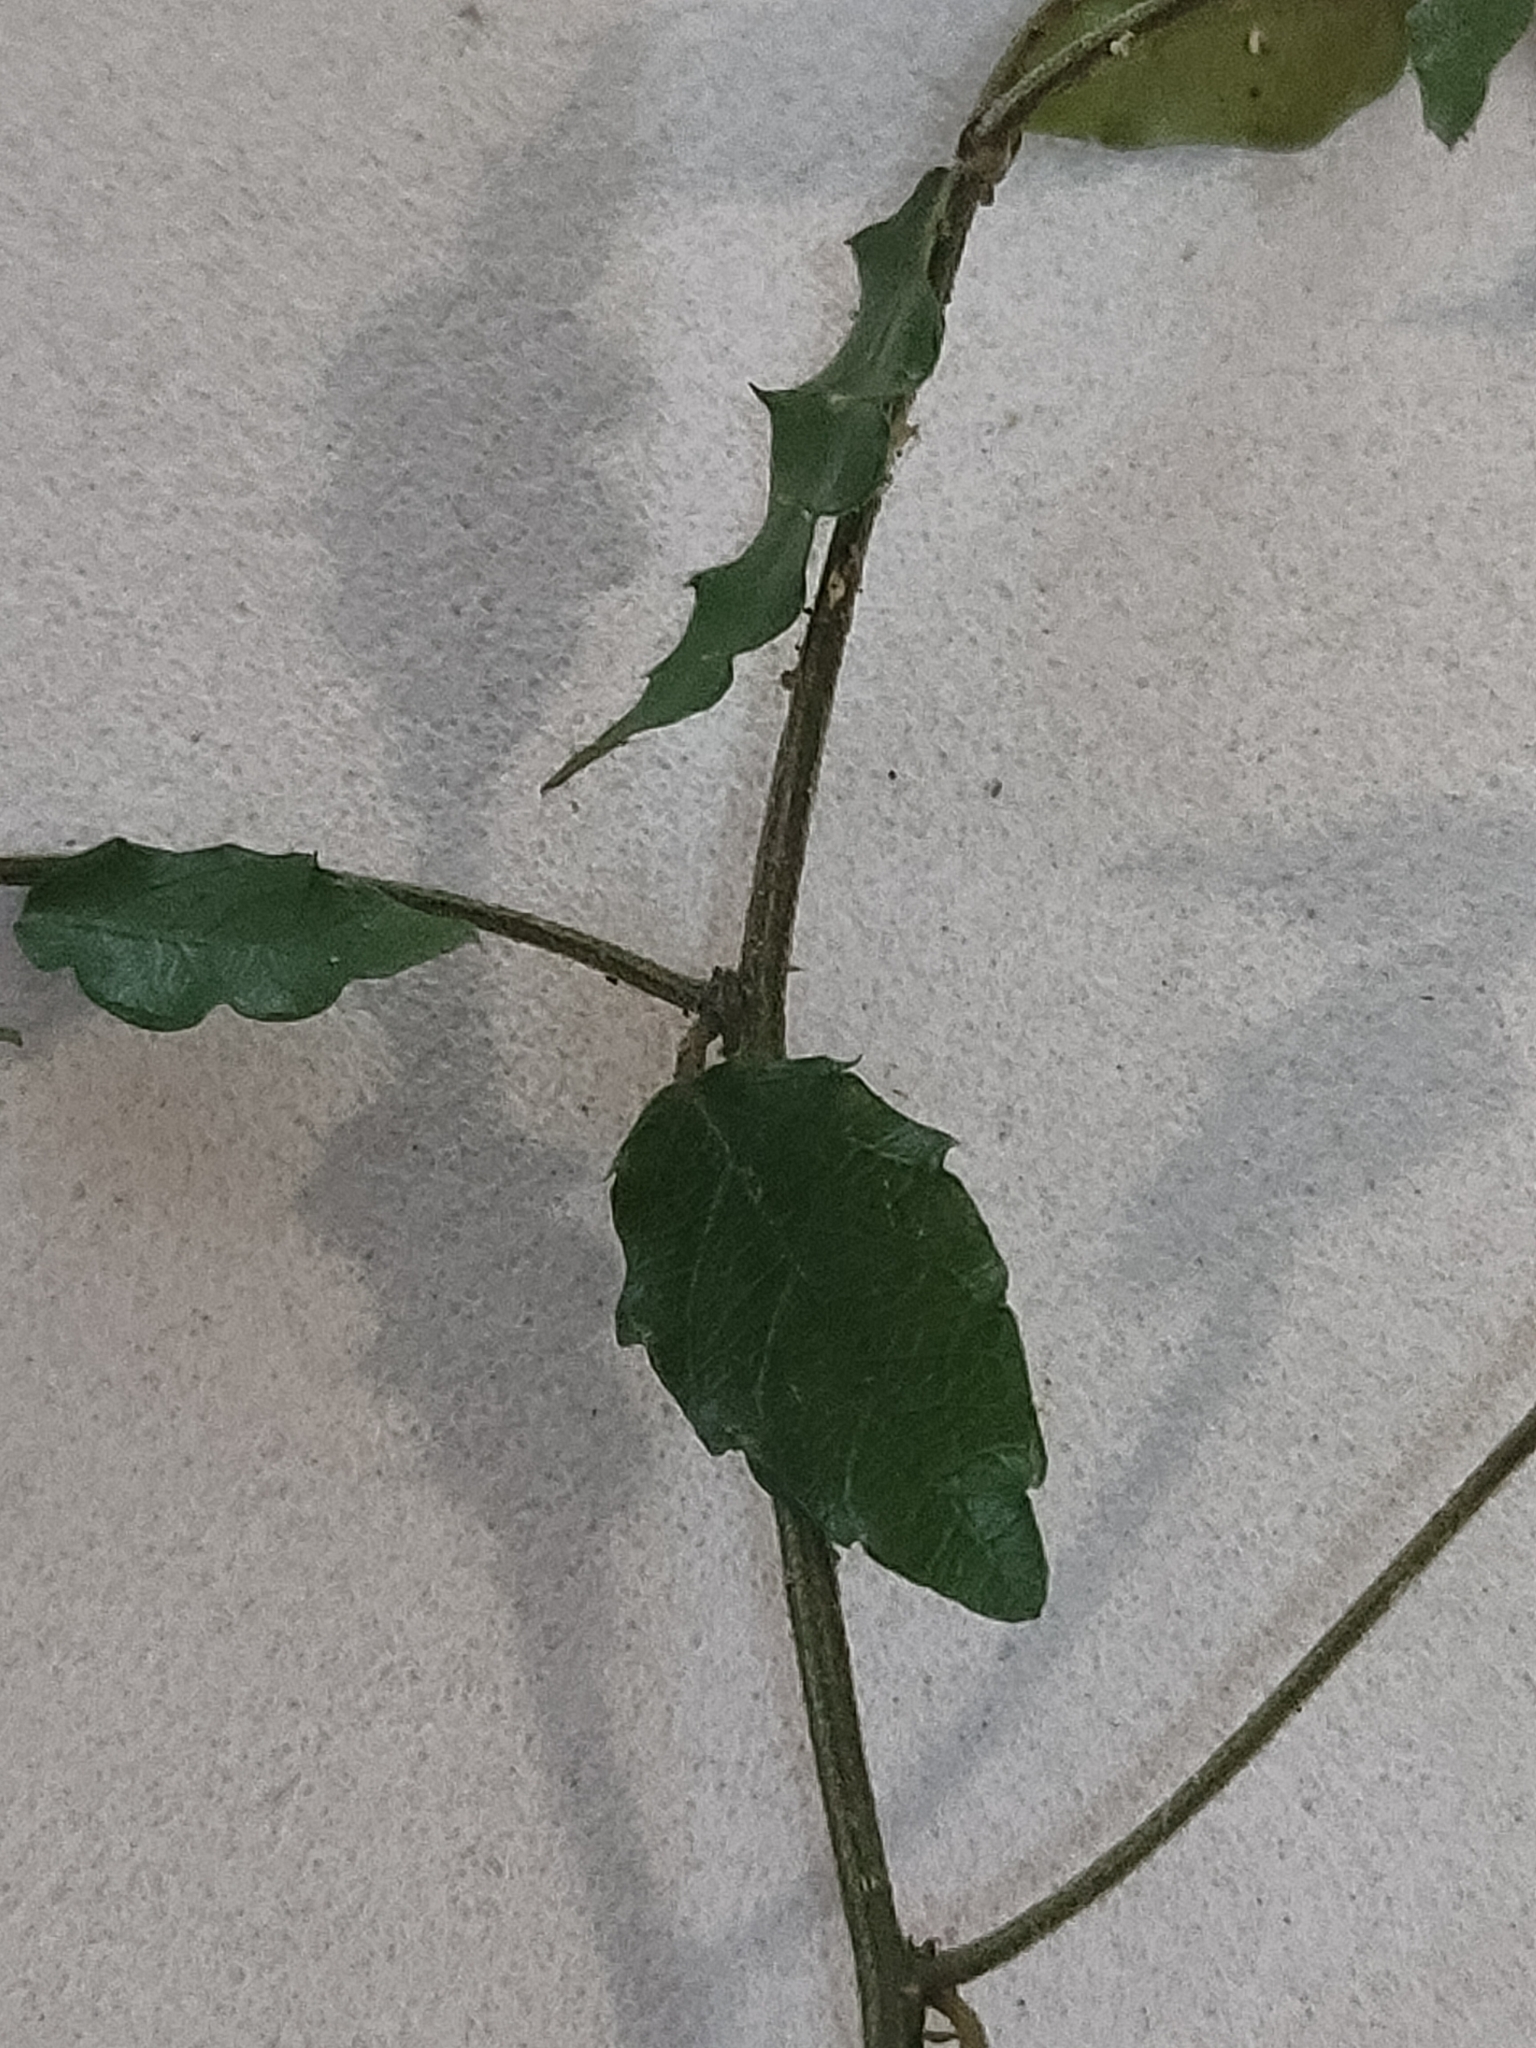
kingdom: Plantae
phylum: Tracheophyta
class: Magnoliopsida
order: Rosales
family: Rhamnaceae
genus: Ventilago
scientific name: Ventilago pubiflora
